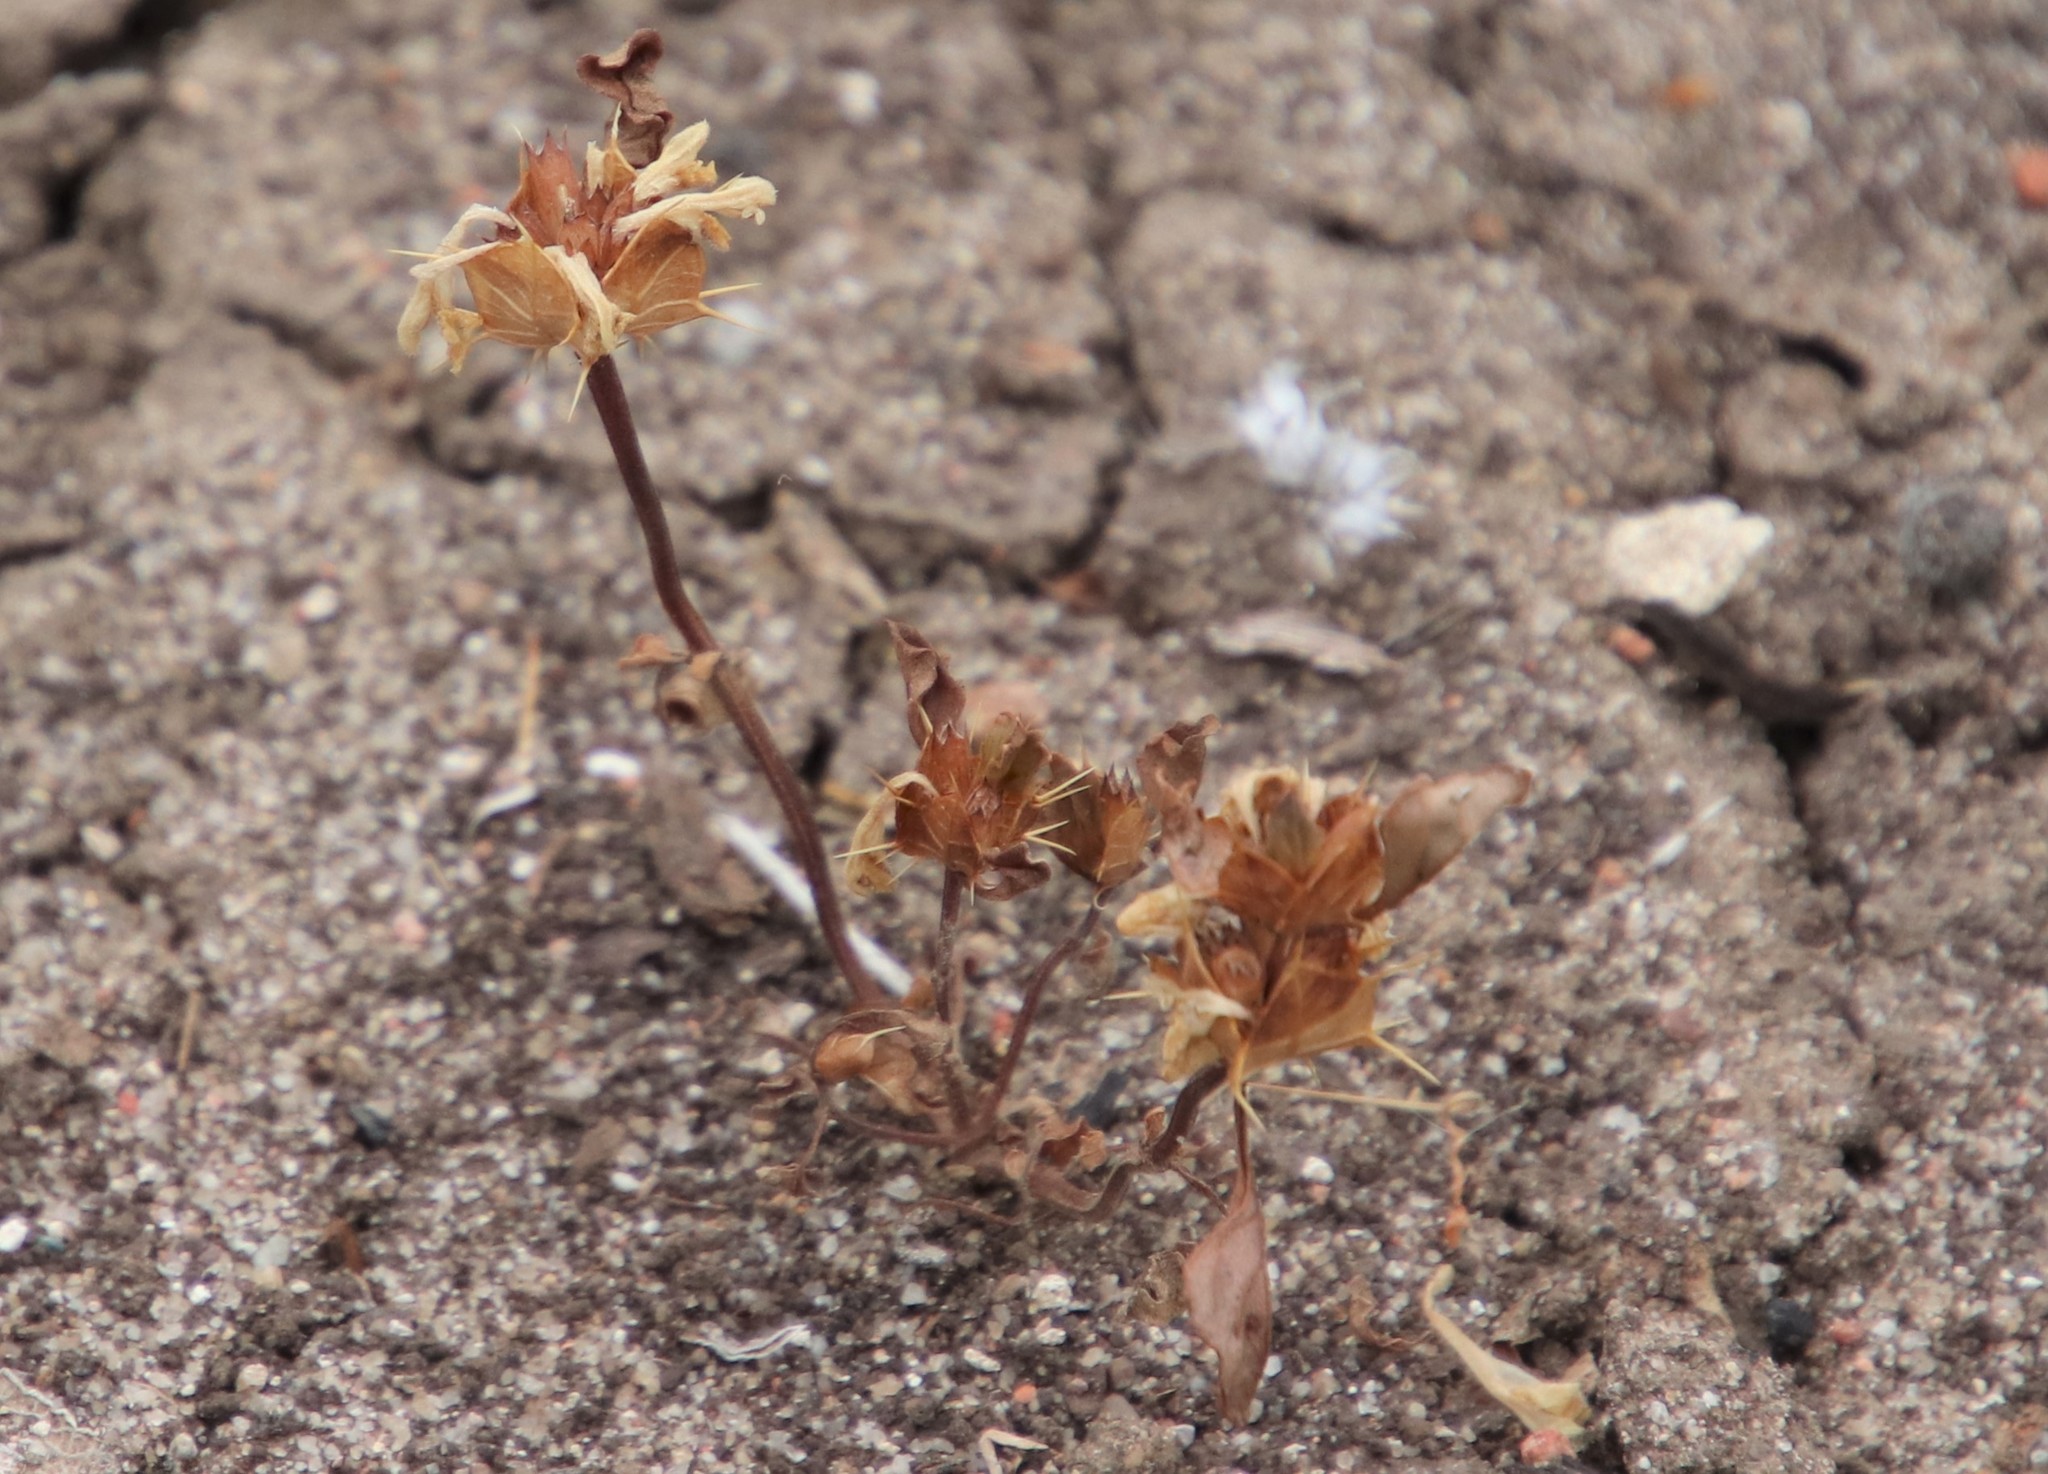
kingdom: Plantae
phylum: Tracheophyta
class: Magnoliopsida
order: Lamiales
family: Lamiaceae
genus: Acanthomintha
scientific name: Acanthomintha ilicifolia
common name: San diego thorn-mint
